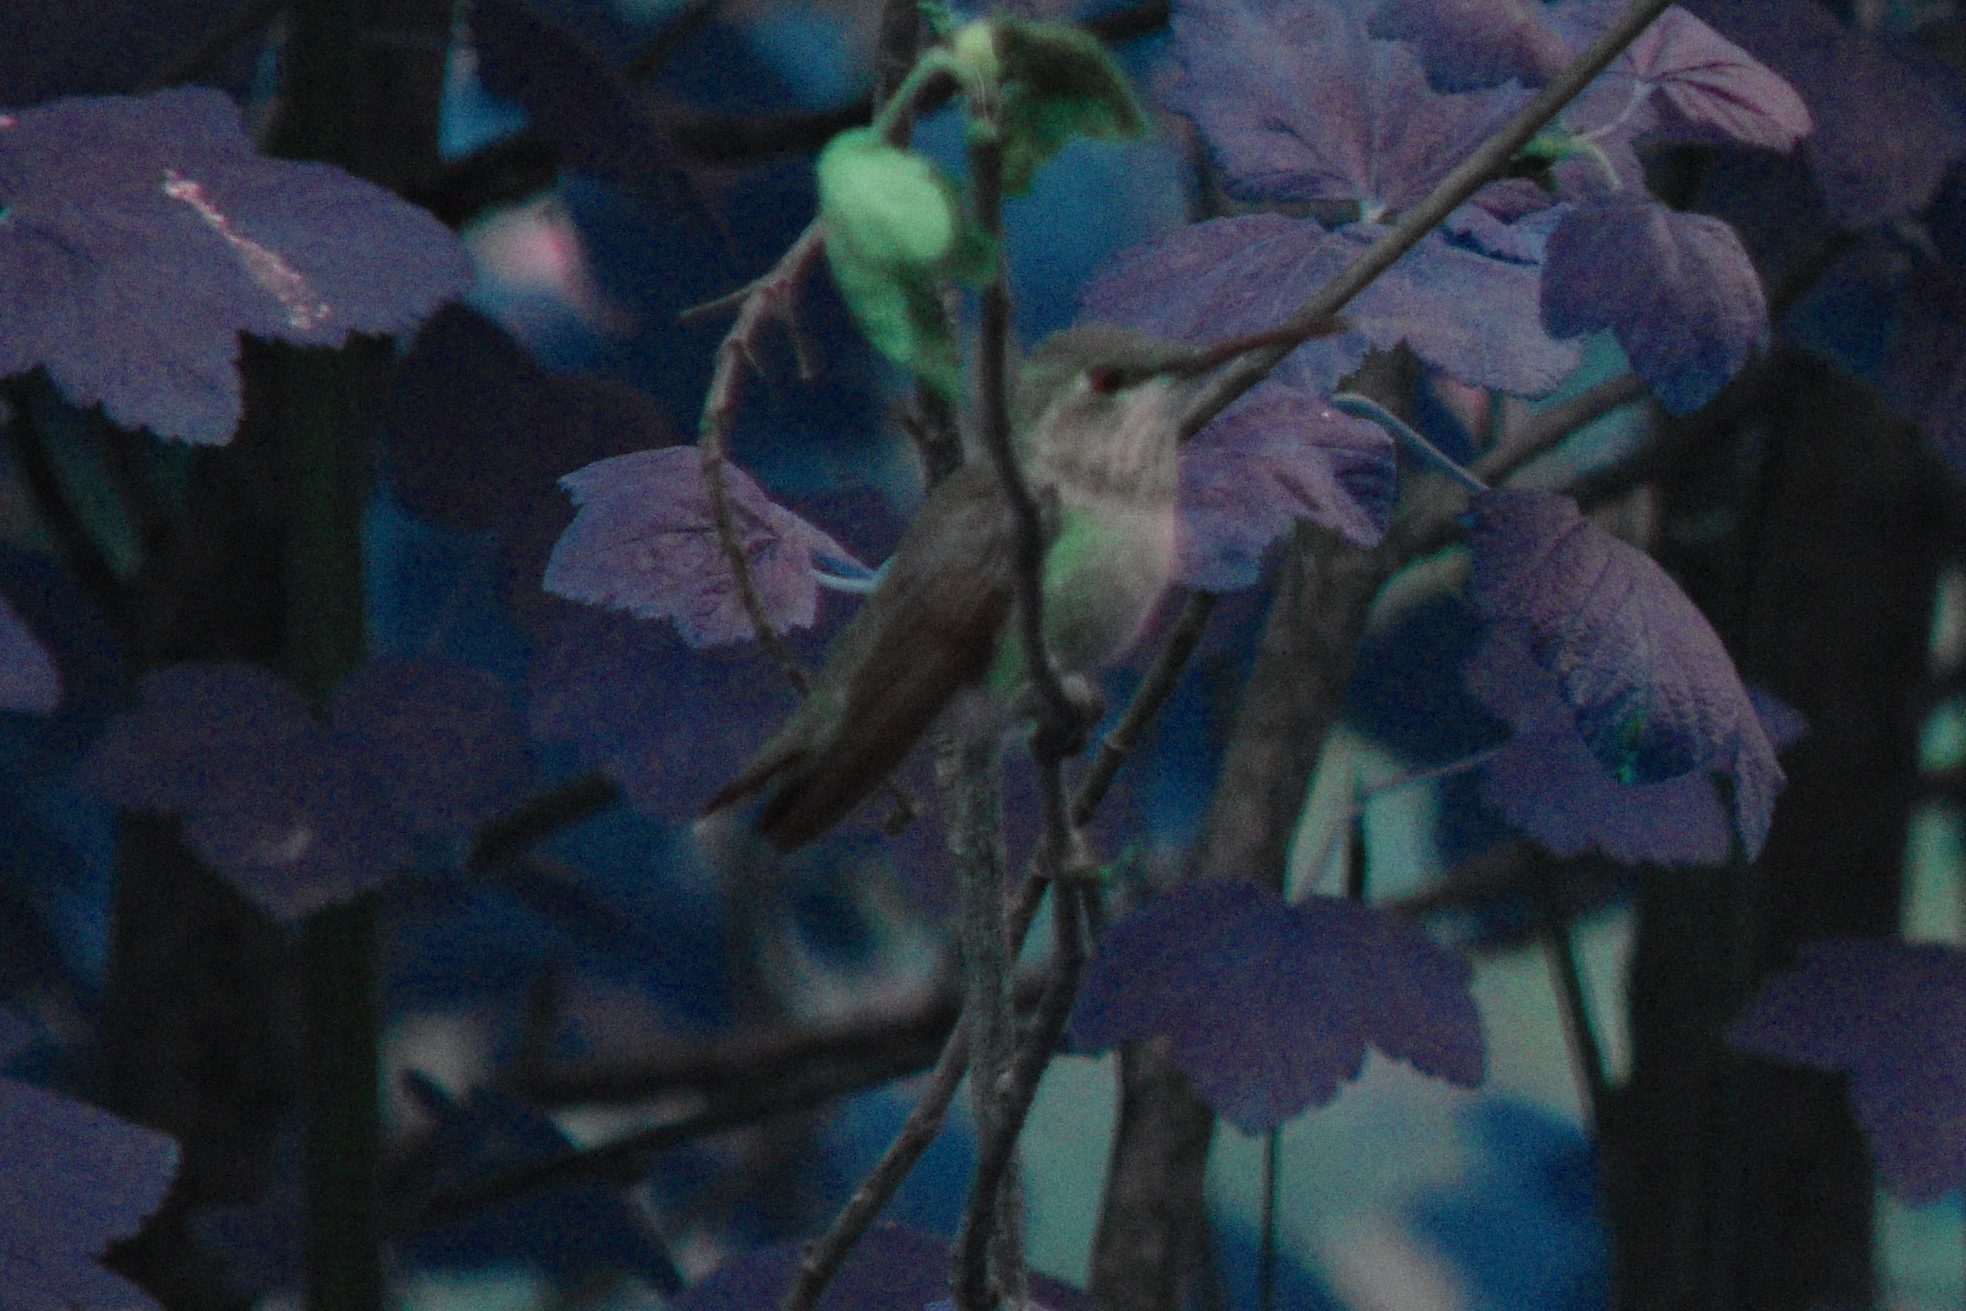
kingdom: Animalia
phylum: Chordata
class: Aves
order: Apodiformes
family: Trochilidae
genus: Selasphorus
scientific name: Selasphorus
